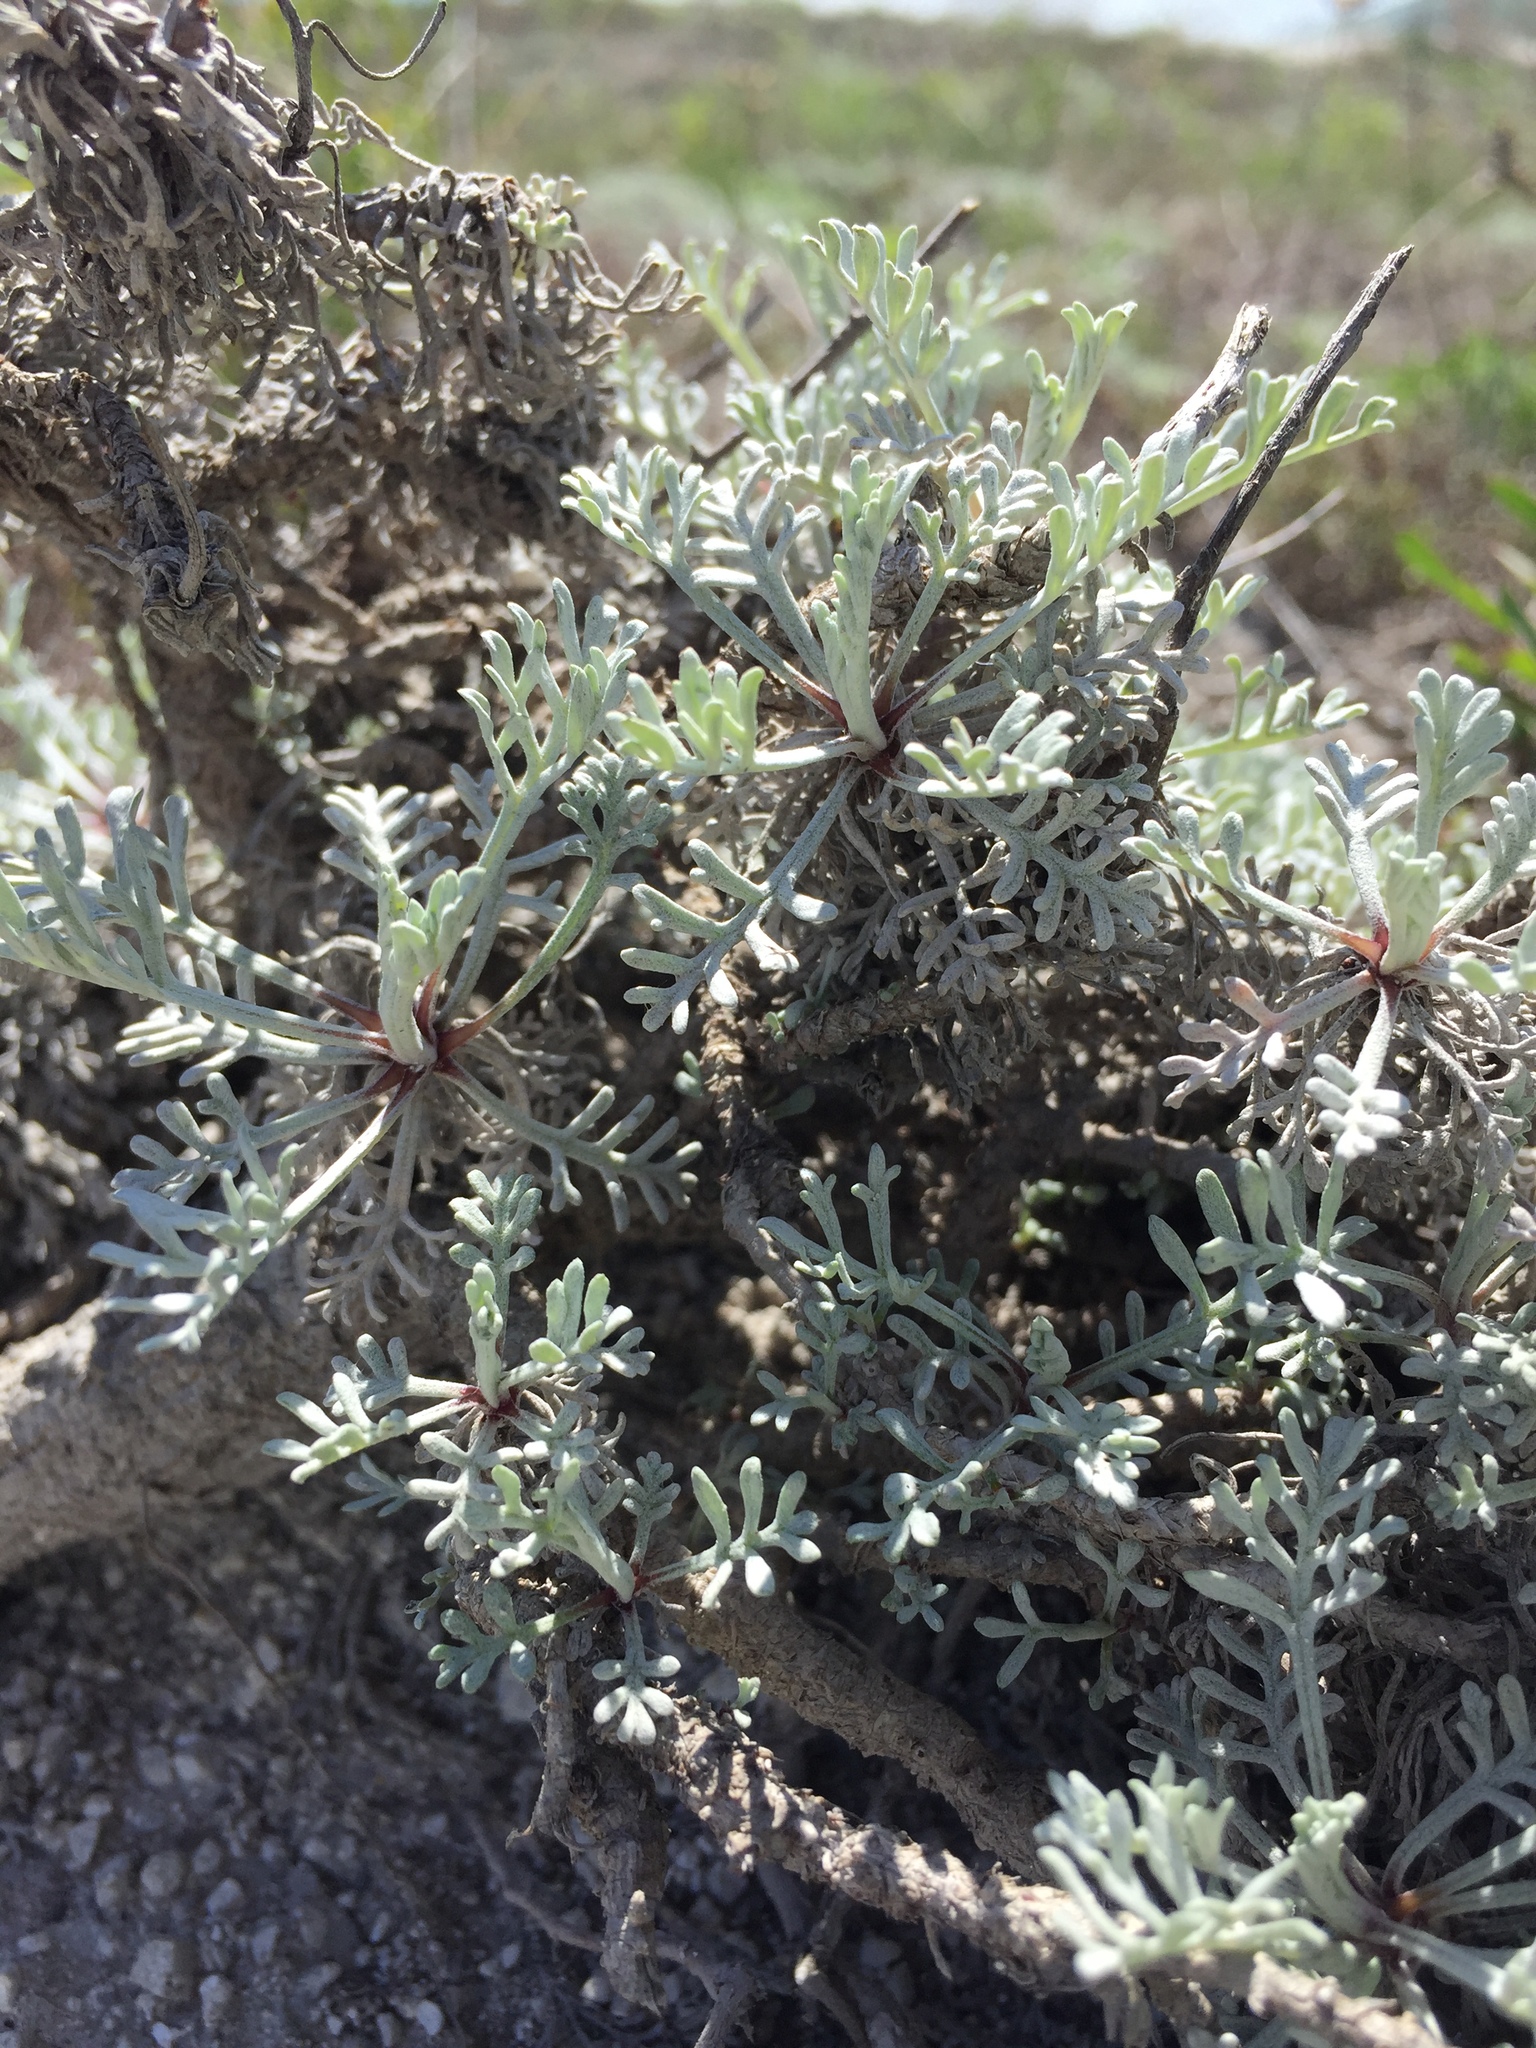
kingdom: Plantae
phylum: Tracheophyta
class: Magnoliopsida
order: Asterales
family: Asteraceae
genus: Artemisia
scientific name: Artemisia hololeuca
